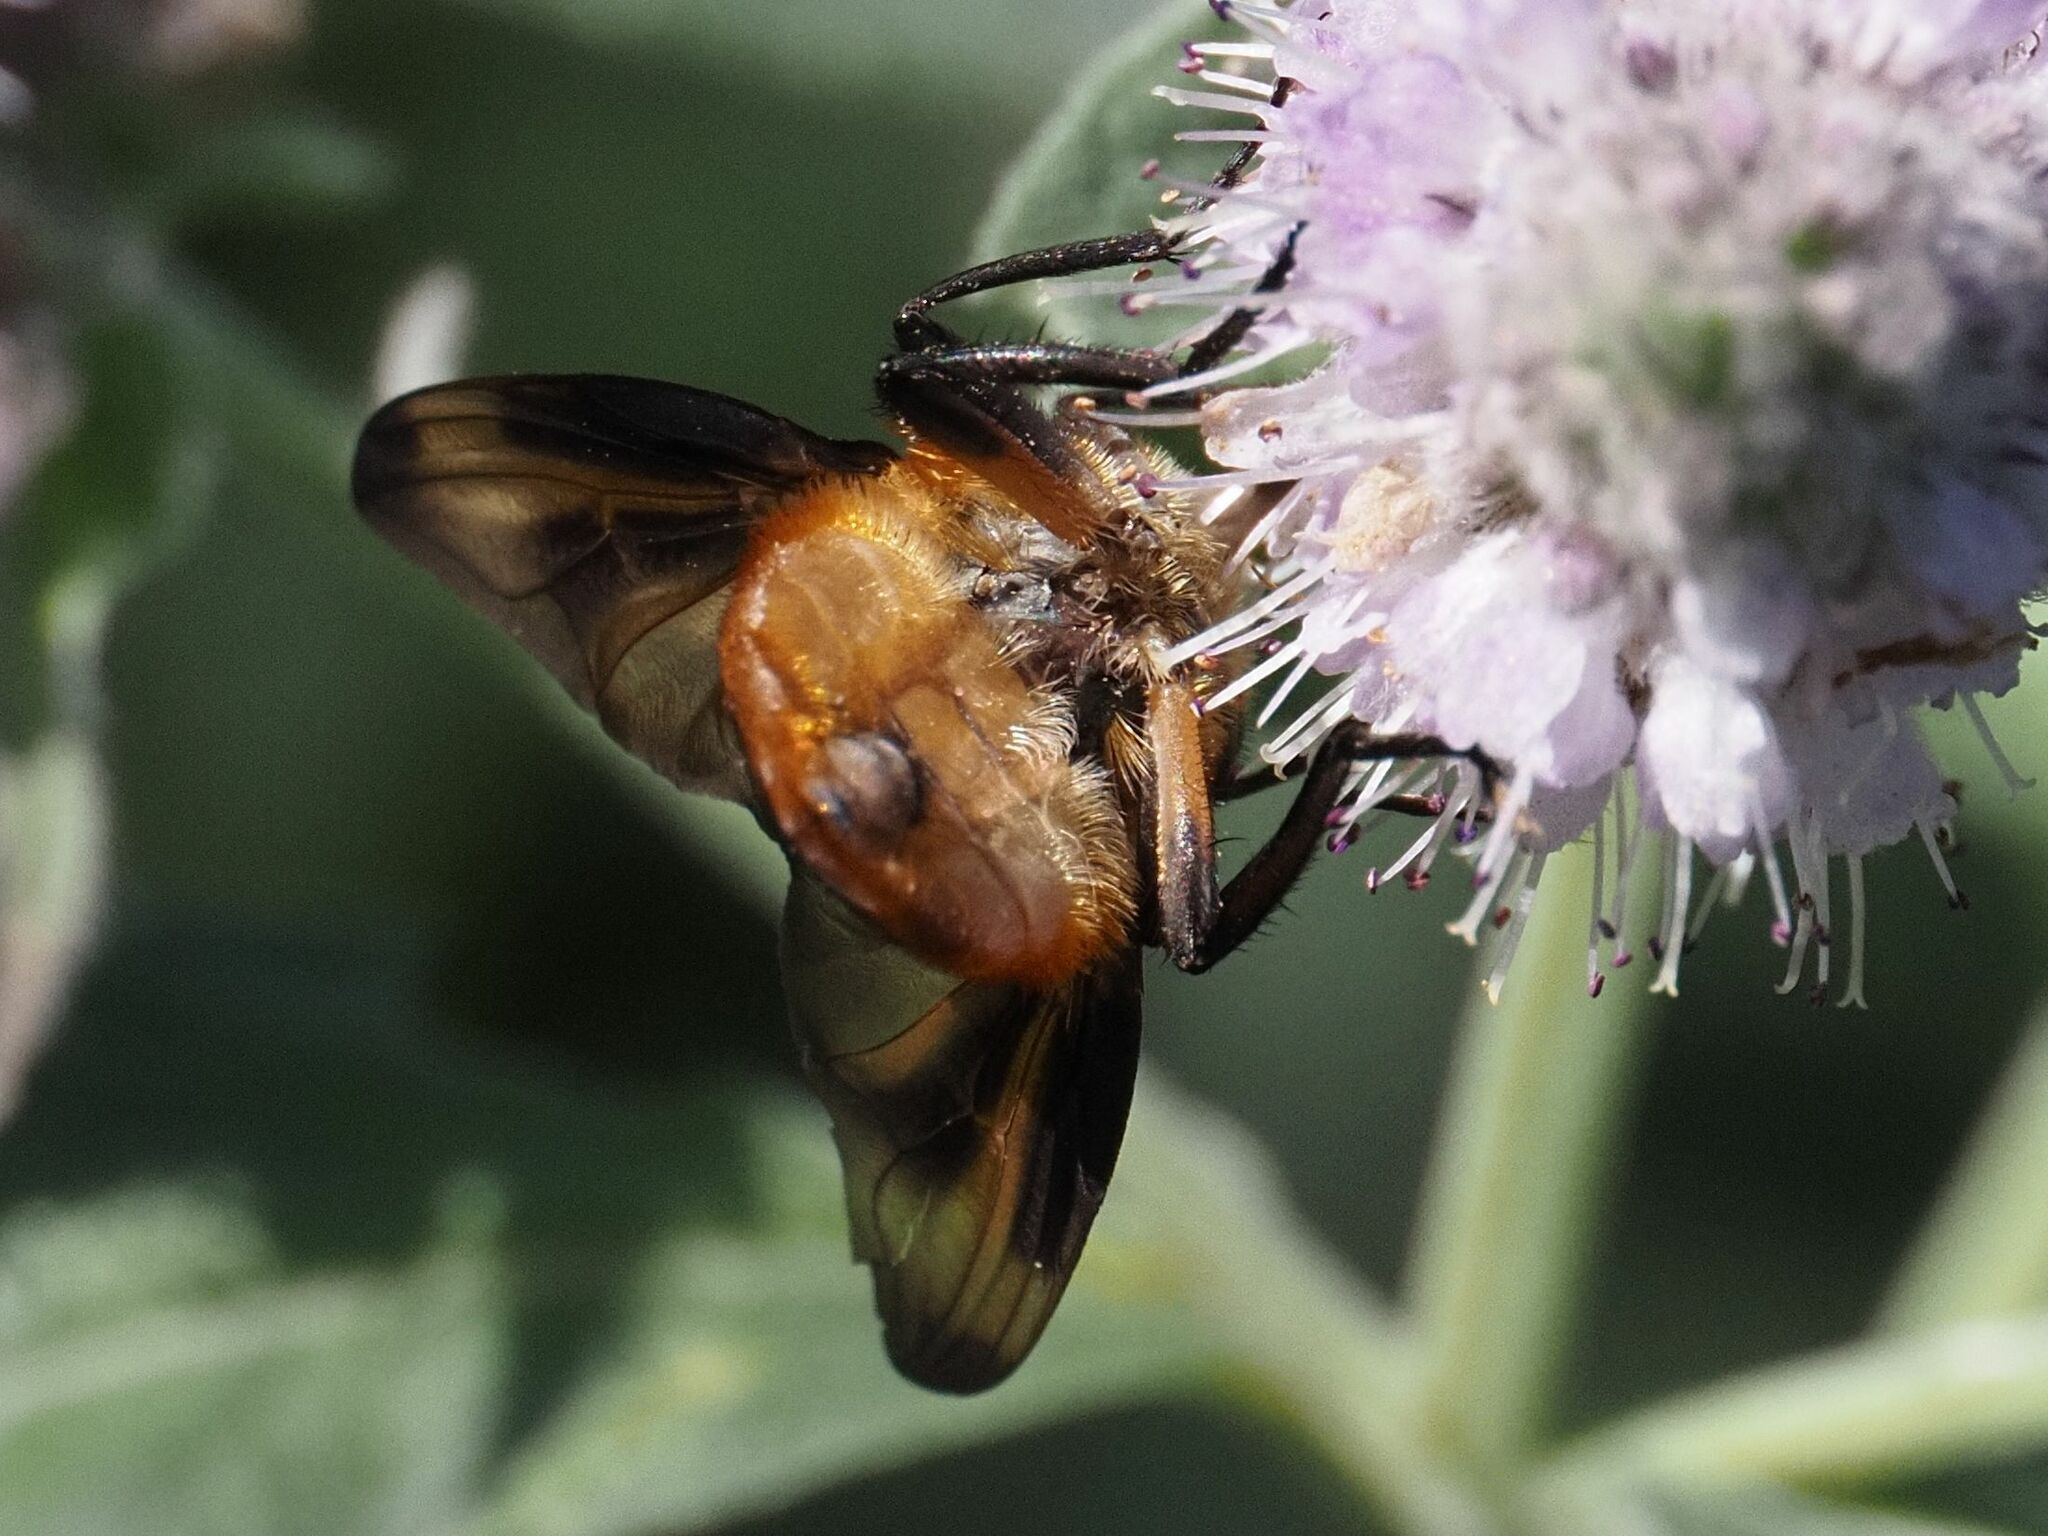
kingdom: Animalia
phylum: Arthropoda
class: Insecta
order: Diptera
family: Tachinidae
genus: Phasia
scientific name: Phasia hemiptera
